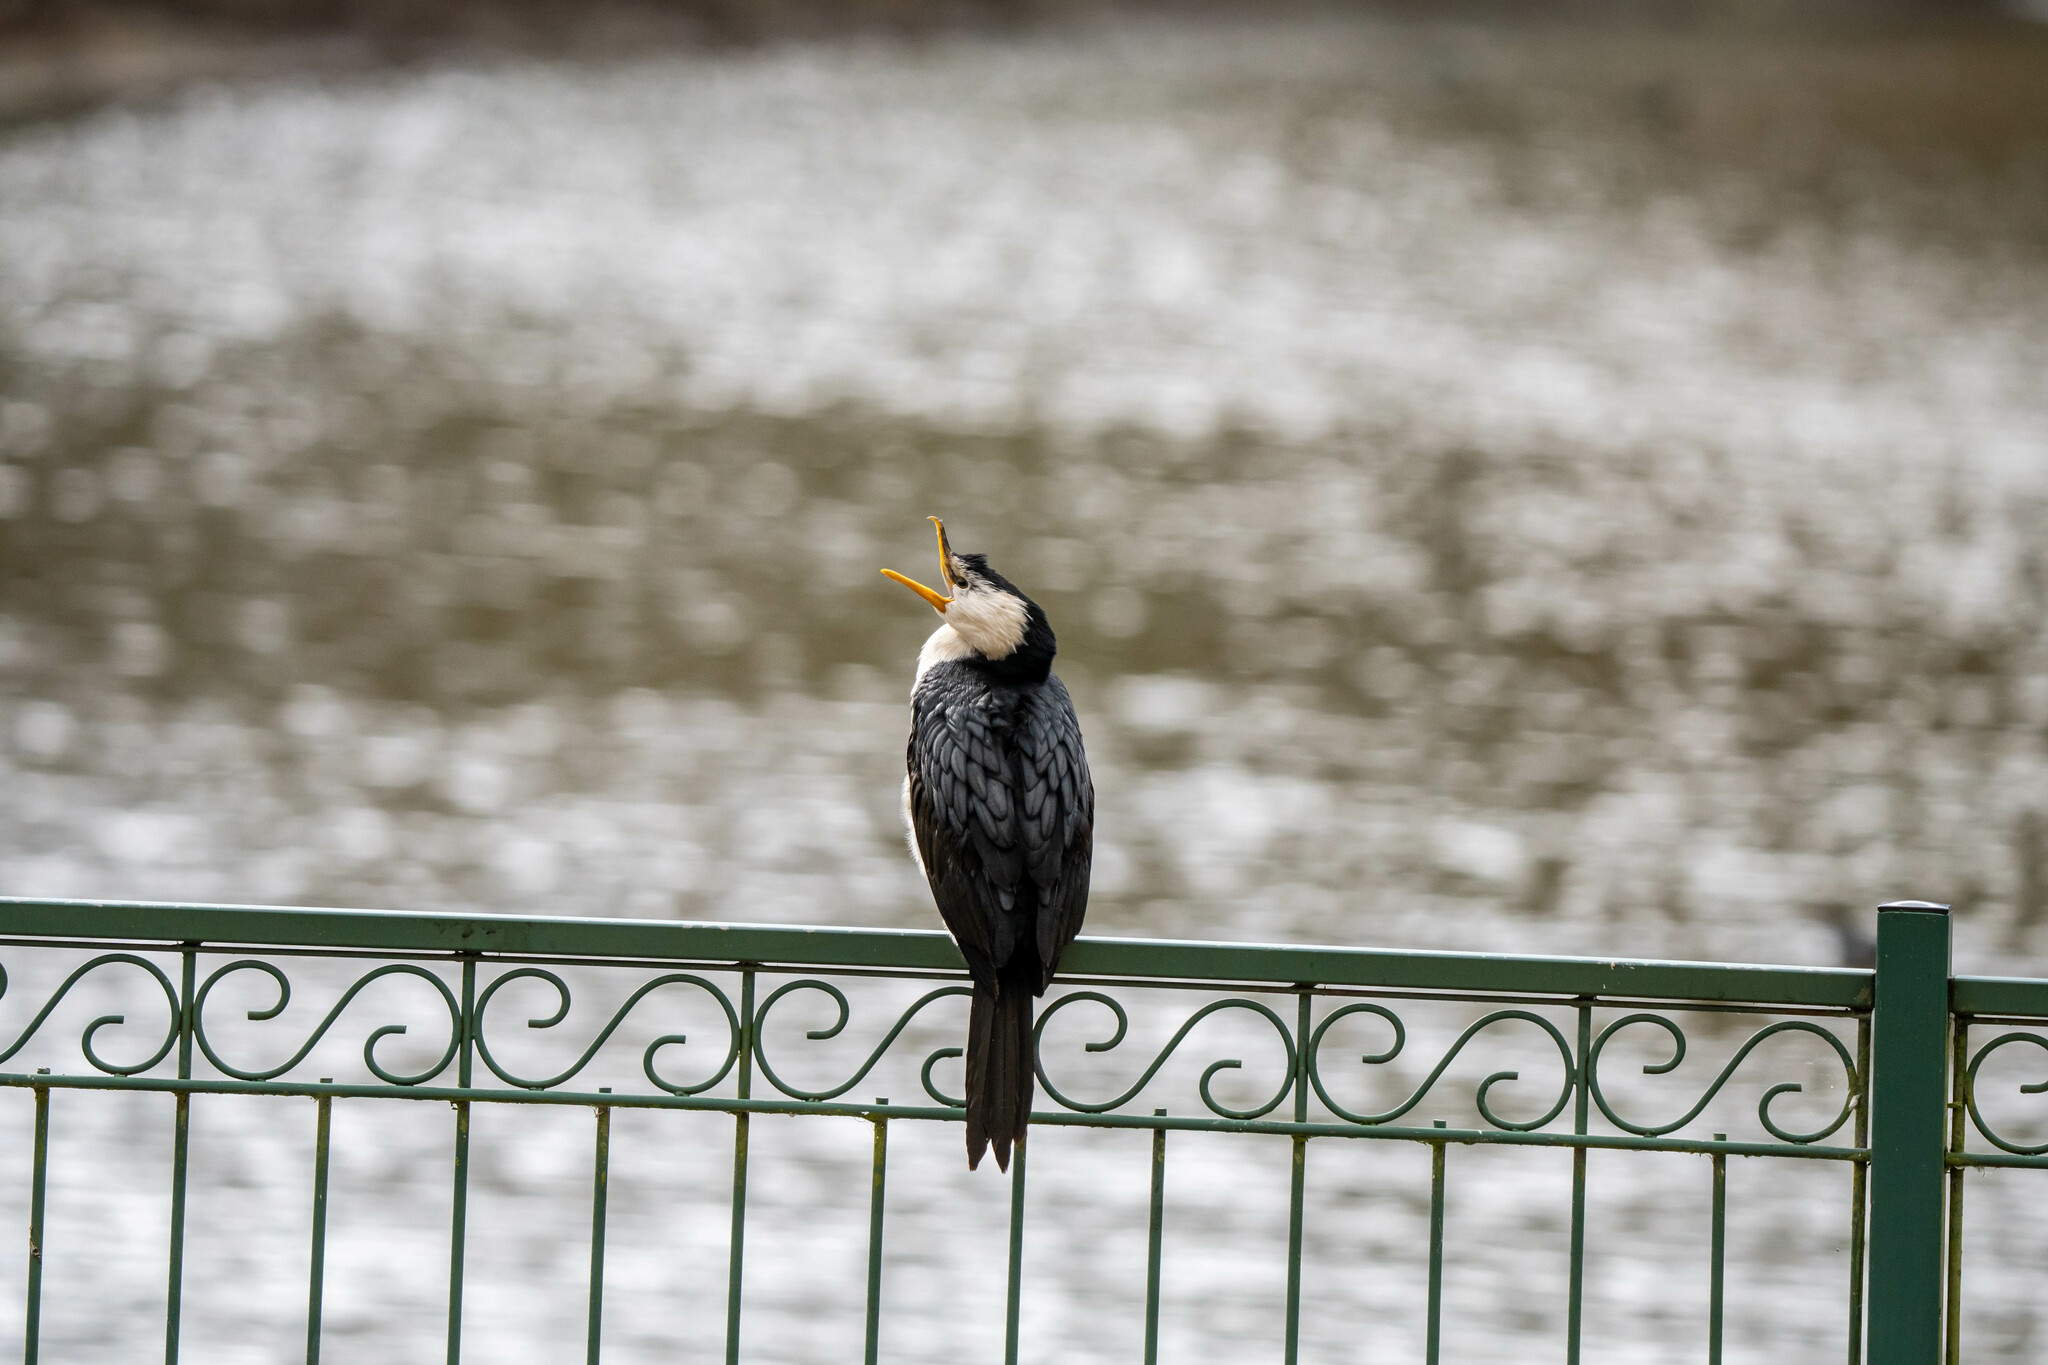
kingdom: Animalia
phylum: Chordata
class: Aves
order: Suliformes
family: Phalacrocoracidae
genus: Microcarbo
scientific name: Microcarbo melanoleucos
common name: Little pied cormorant
